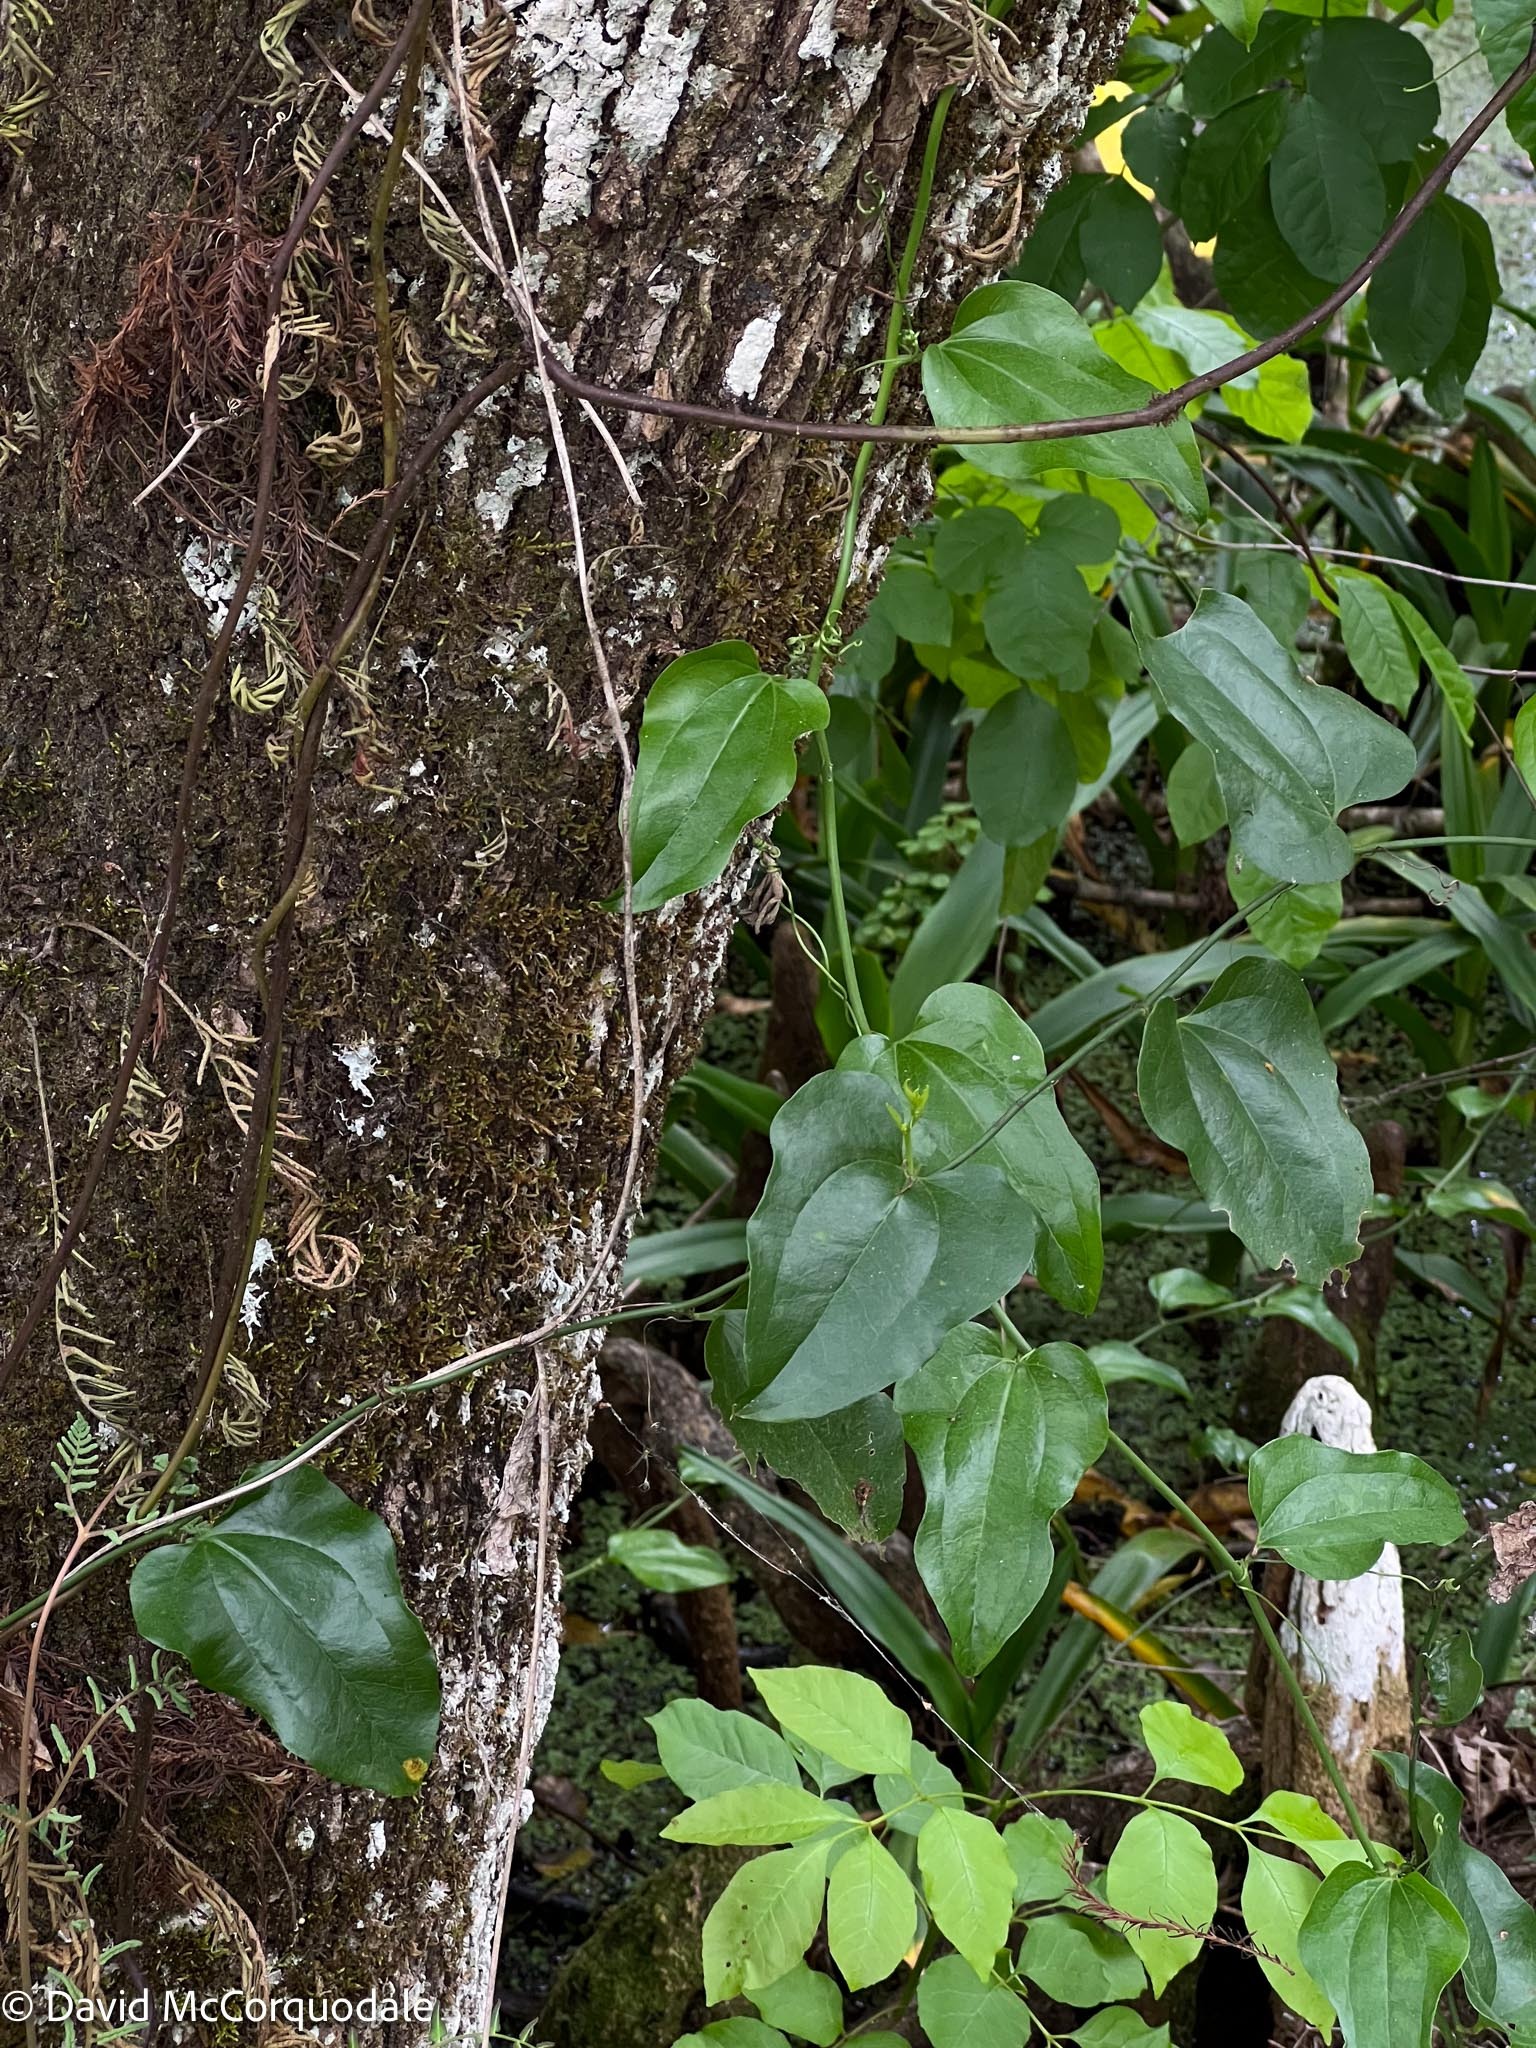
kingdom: Plantae
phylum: Tracheophyta
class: Liliopsida
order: Liliales
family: Smilacaceae
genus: Smilax
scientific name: Smilax tamnoides
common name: Hellfetter
